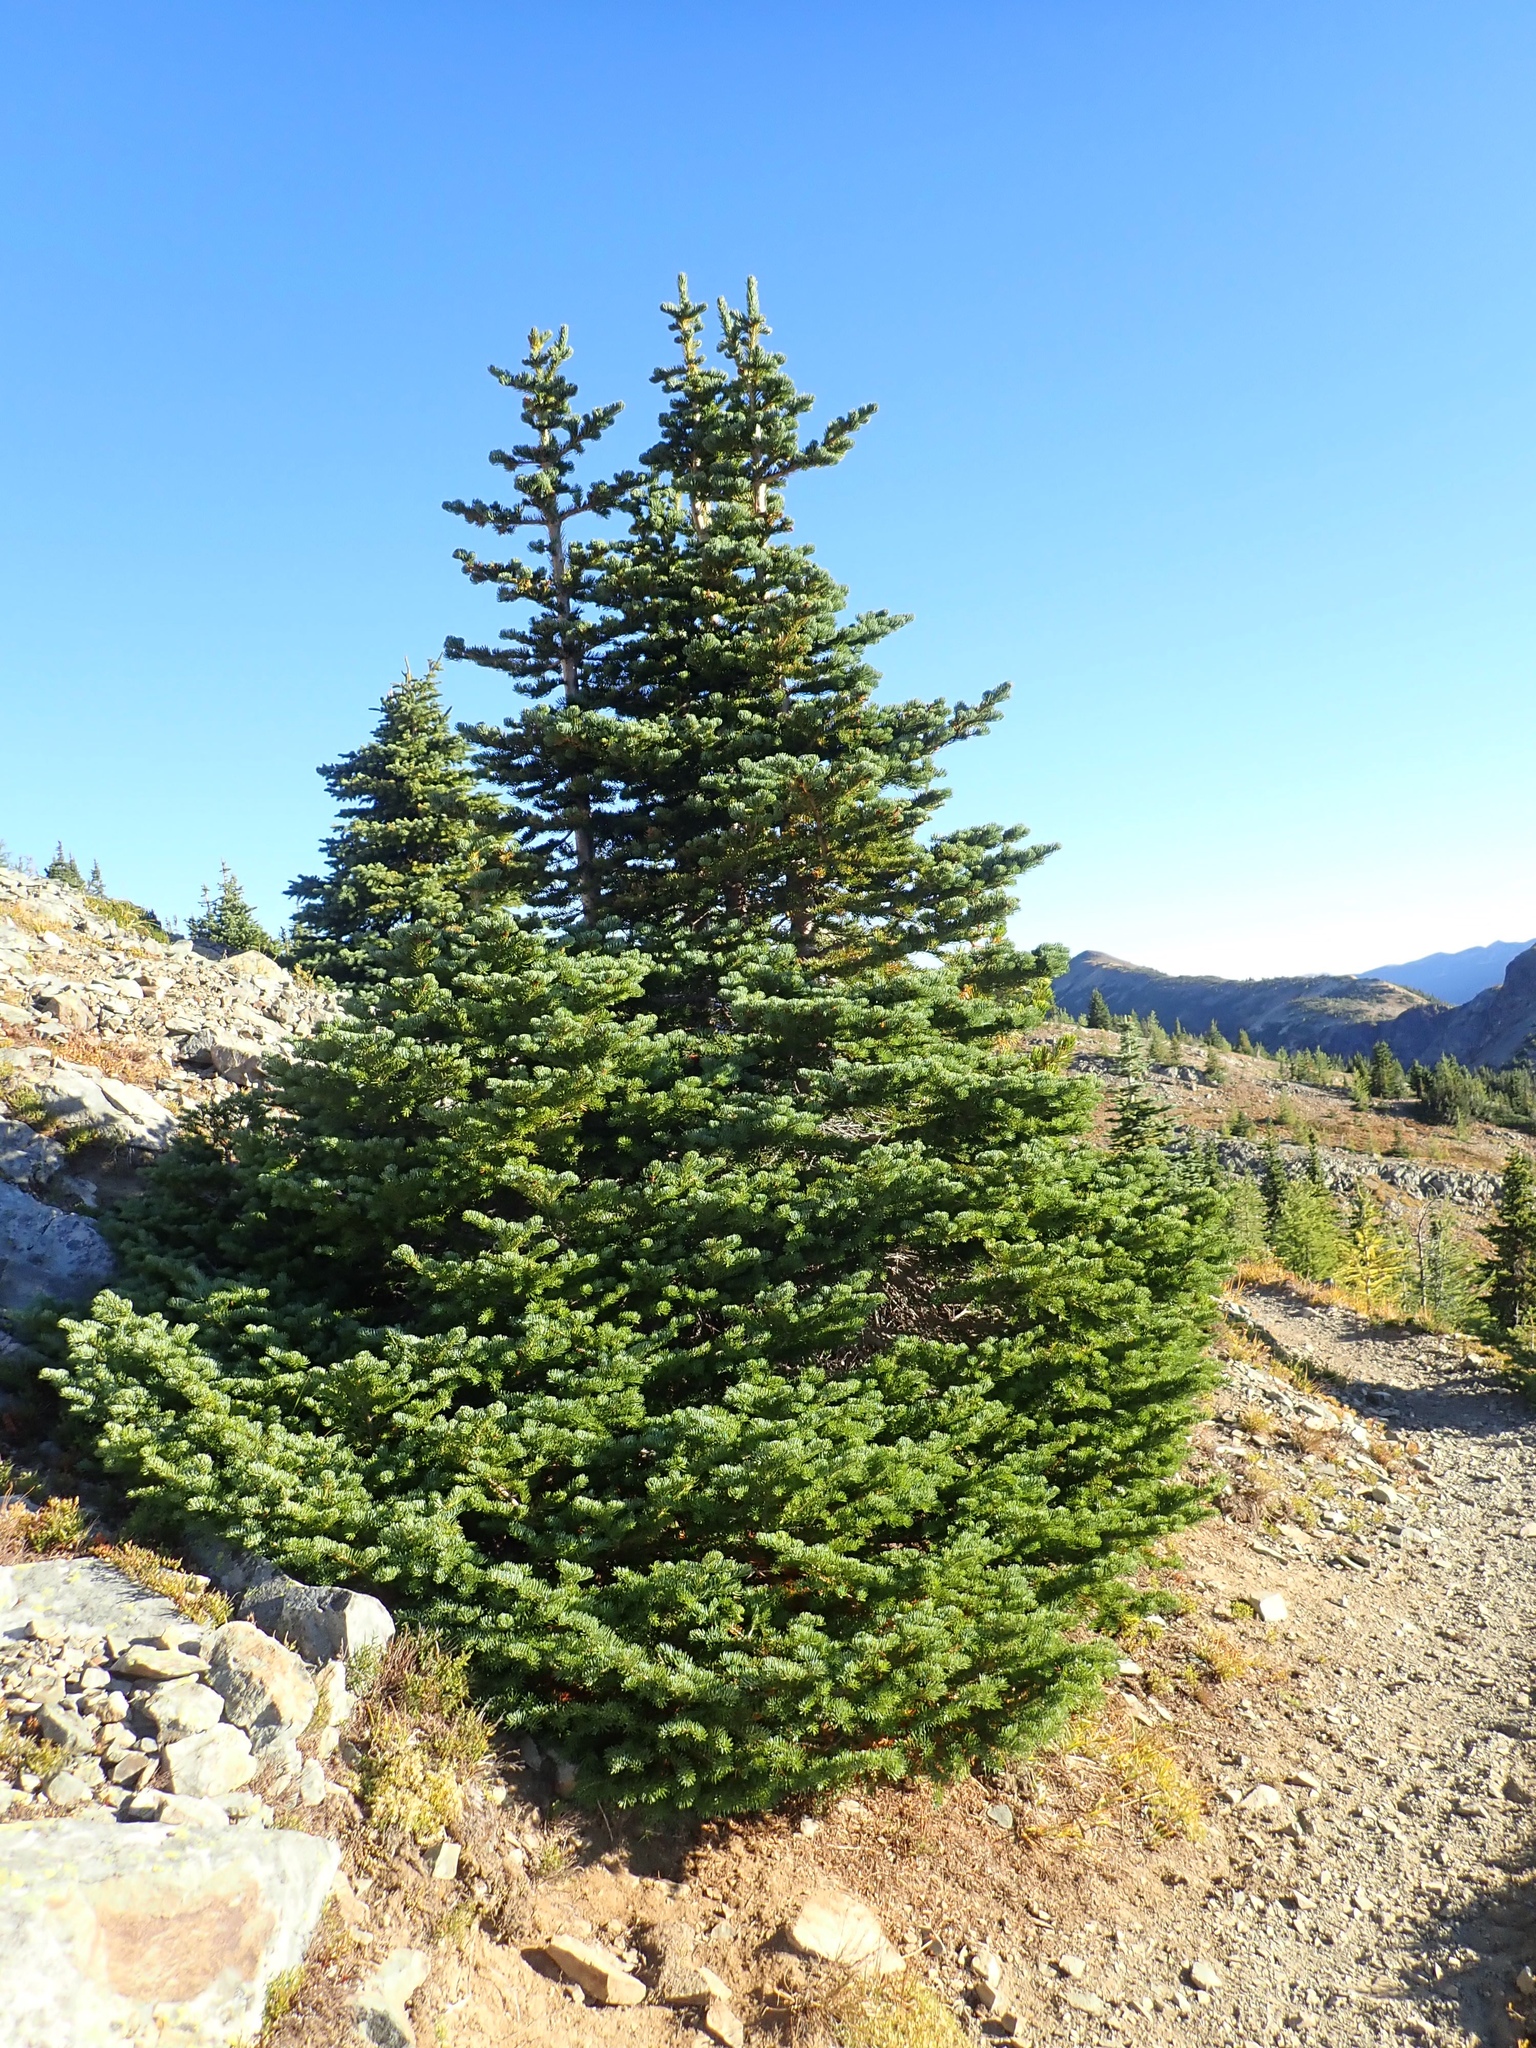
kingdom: Plantae
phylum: Tracheophyta
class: Pinopsida
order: Pinales
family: Pinaceae
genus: Abies
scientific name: Abies lasiocarpa
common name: Subalpine fir
